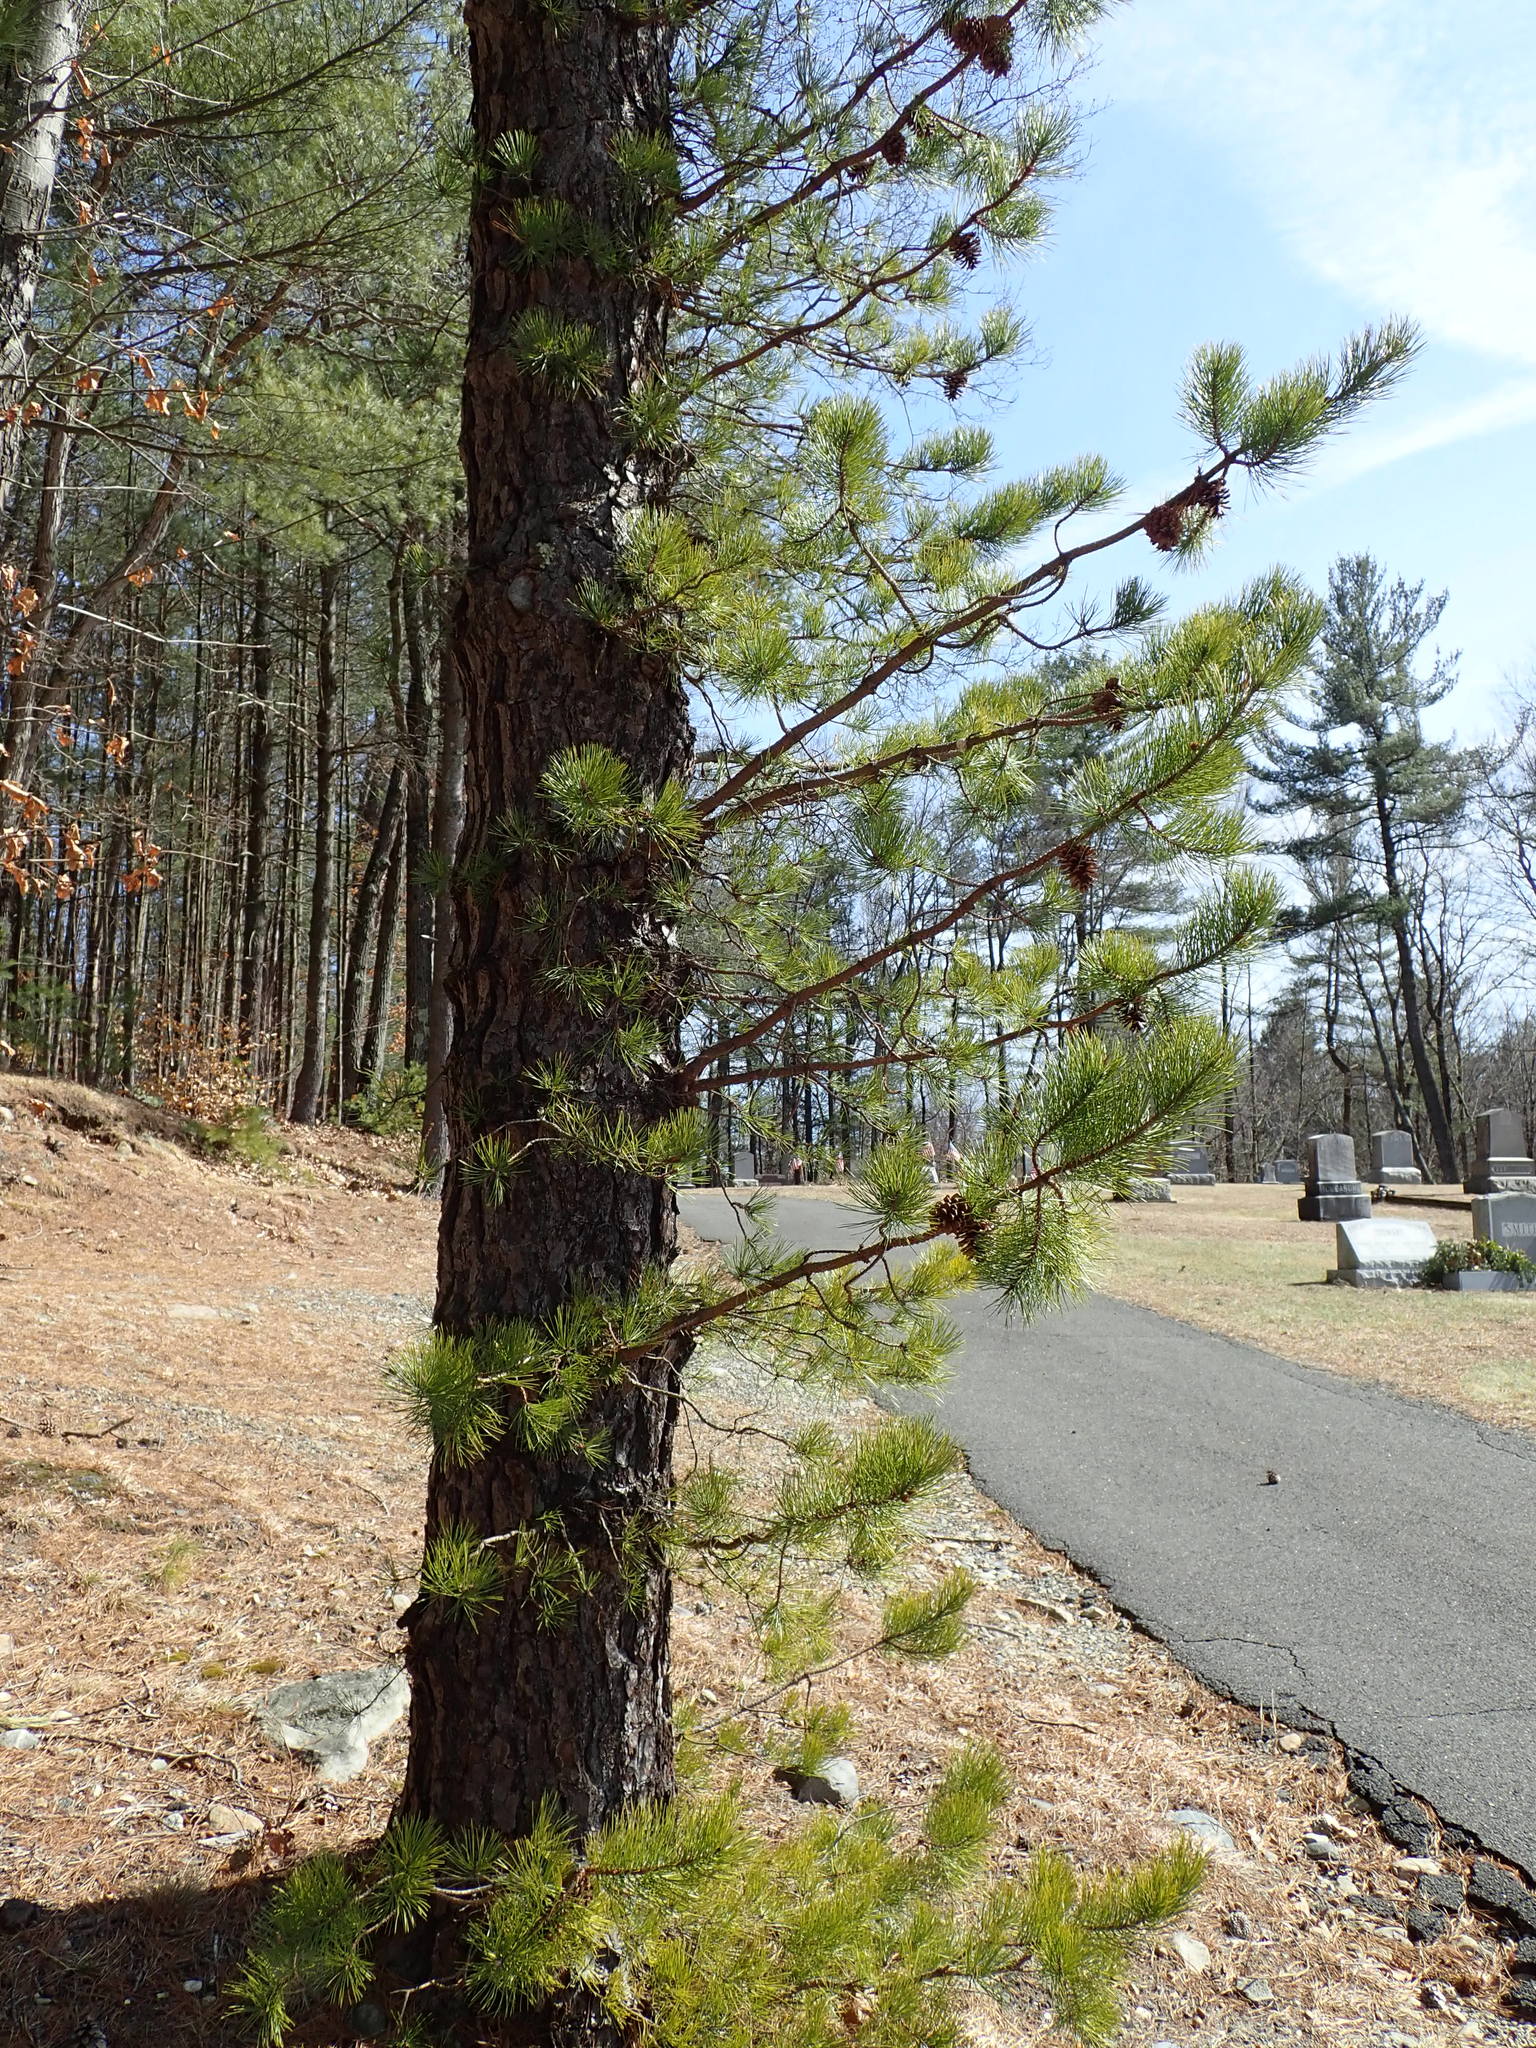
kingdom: Plantae
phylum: Tracheophyta
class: Pinopsida
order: Pinales
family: Pinaceae
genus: Pinus
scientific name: Pinus rigida
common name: Pitch pine
